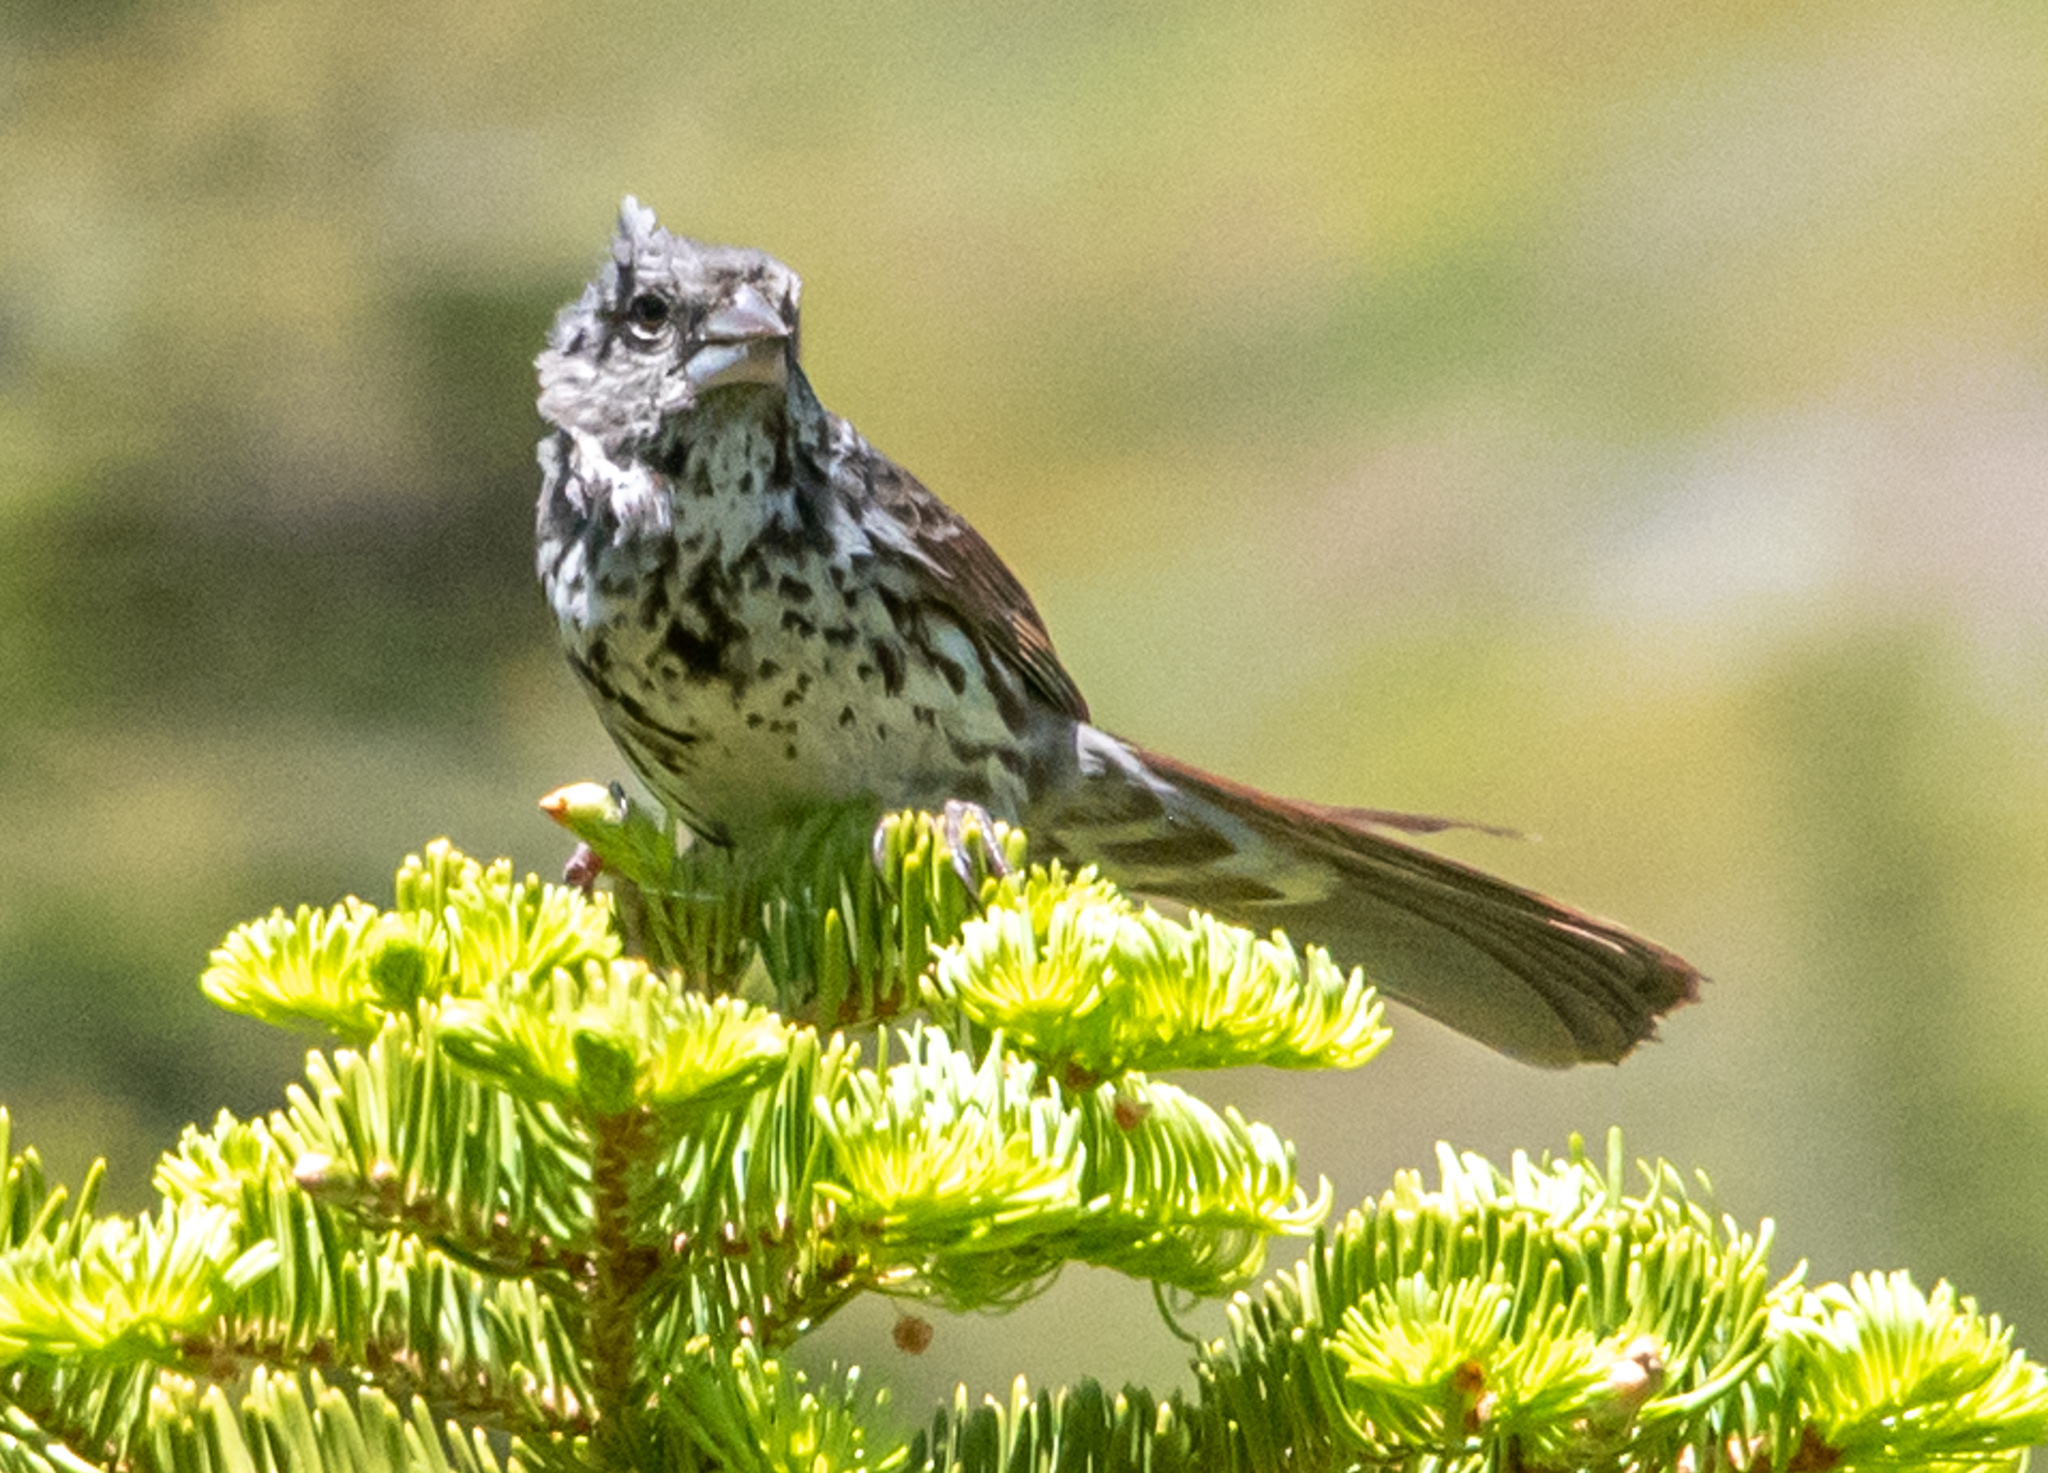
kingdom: Animalia
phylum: Chordata
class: Aves
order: Passeriformes
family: Passerellidae
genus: Passerella
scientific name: Passerella iliaca
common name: Fox sparrow
